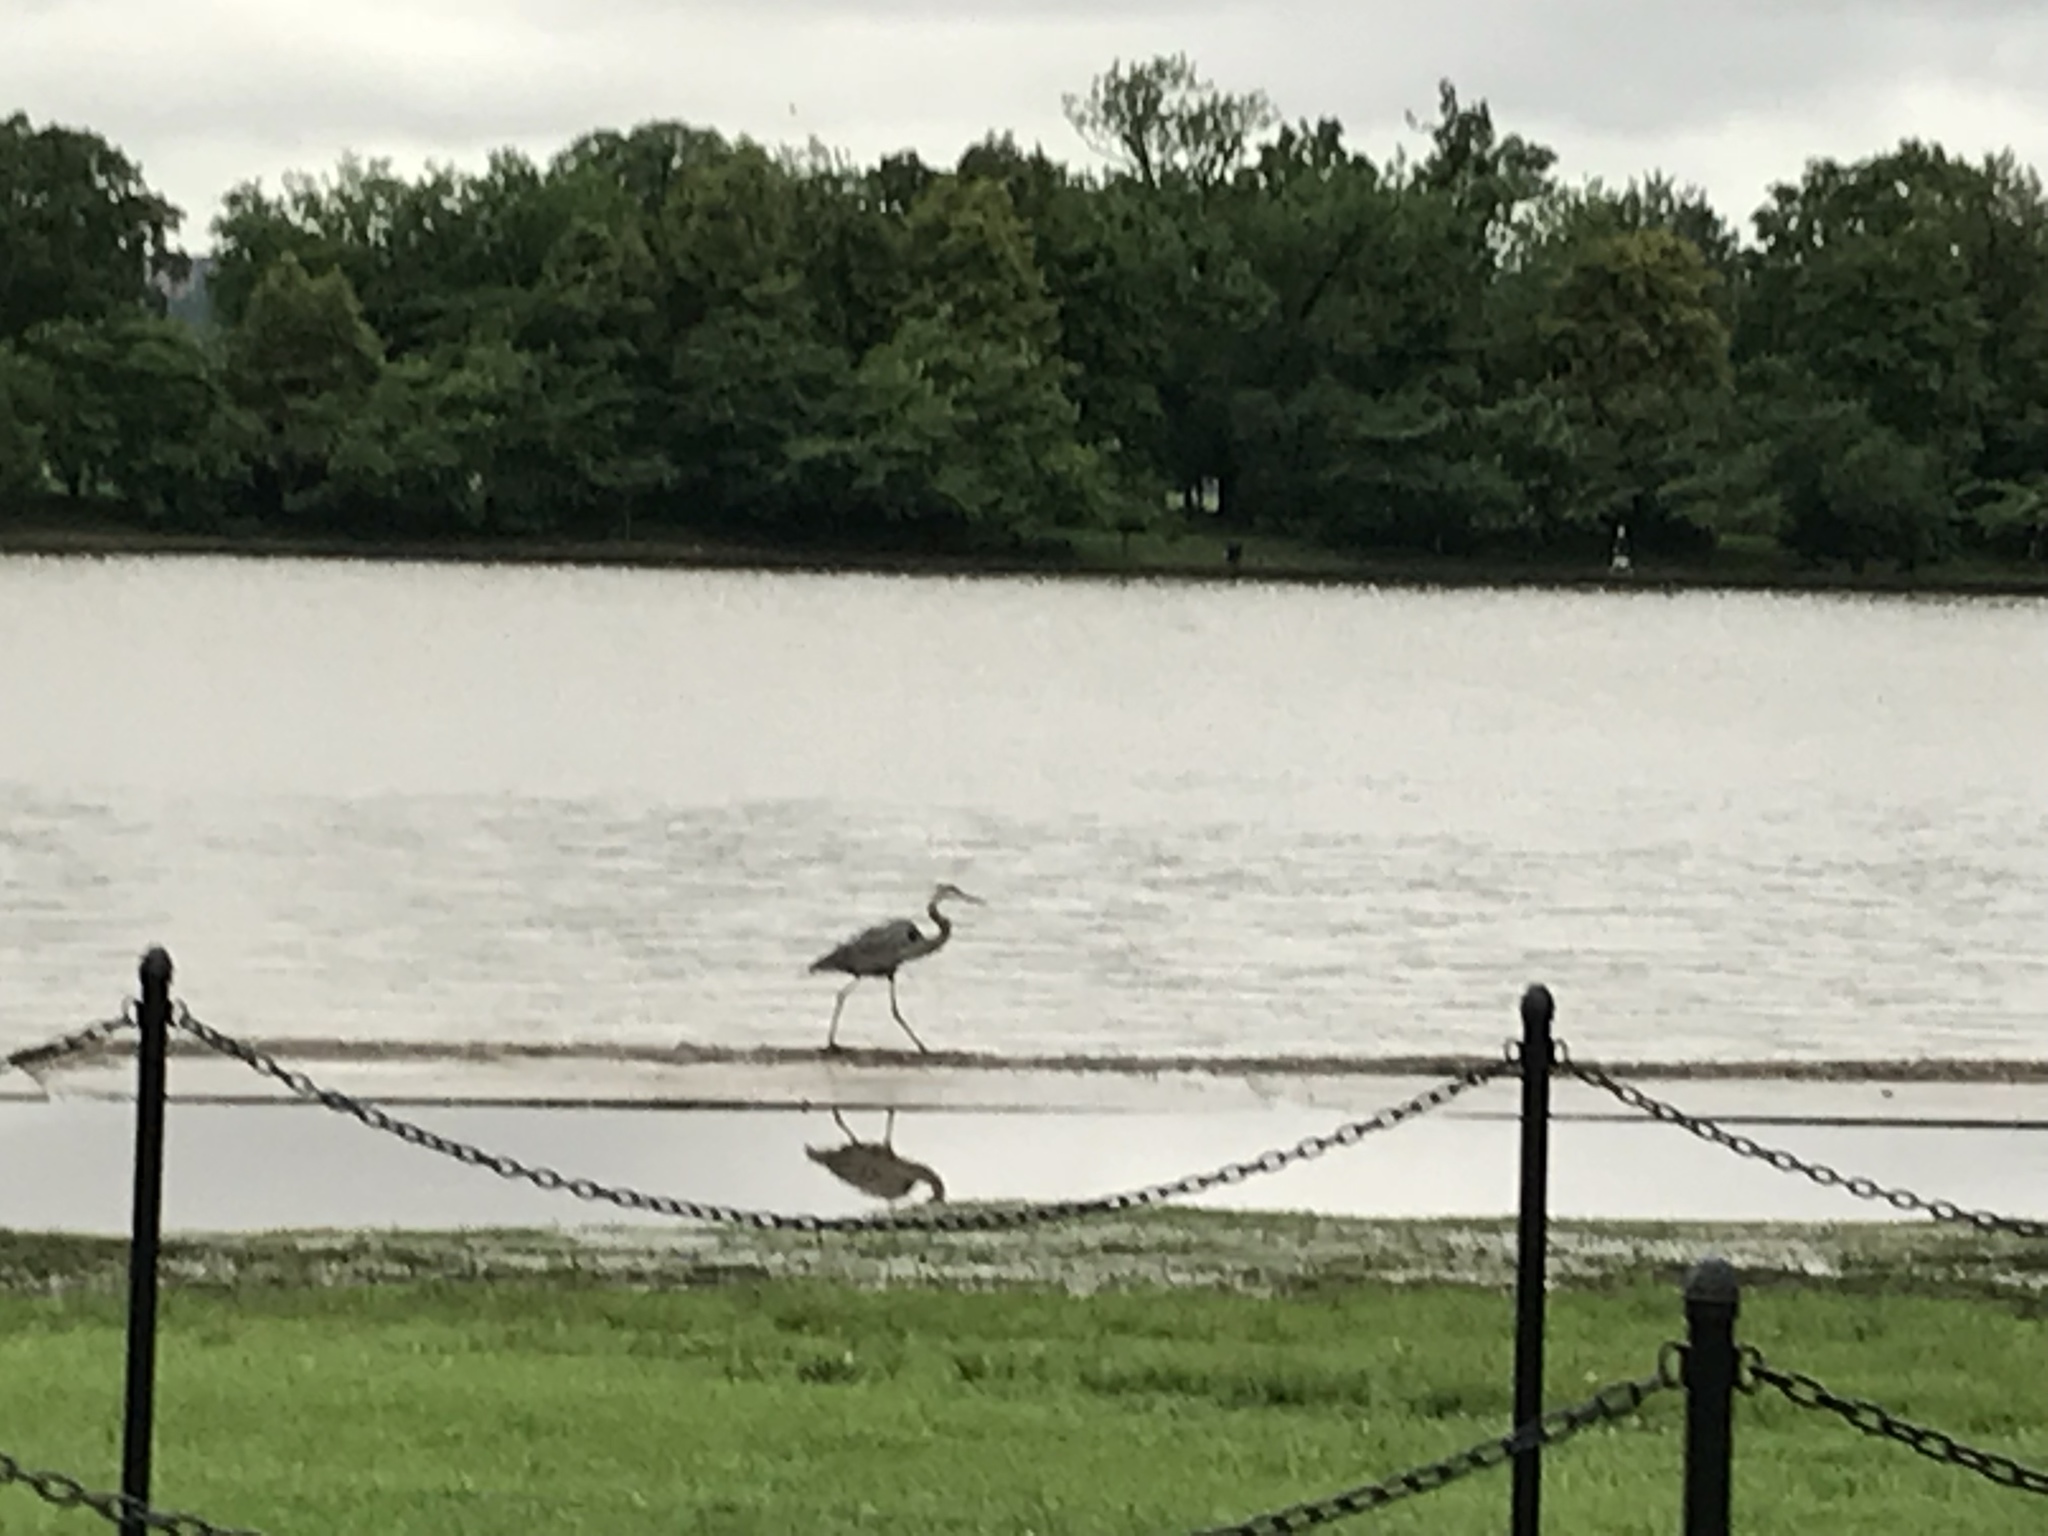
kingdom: Animalia
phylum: Chordata
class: Aves
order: Pelecaniformes
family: Ardeidae
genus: Ardea
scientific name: Ardea herodias
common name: Great blue heron
